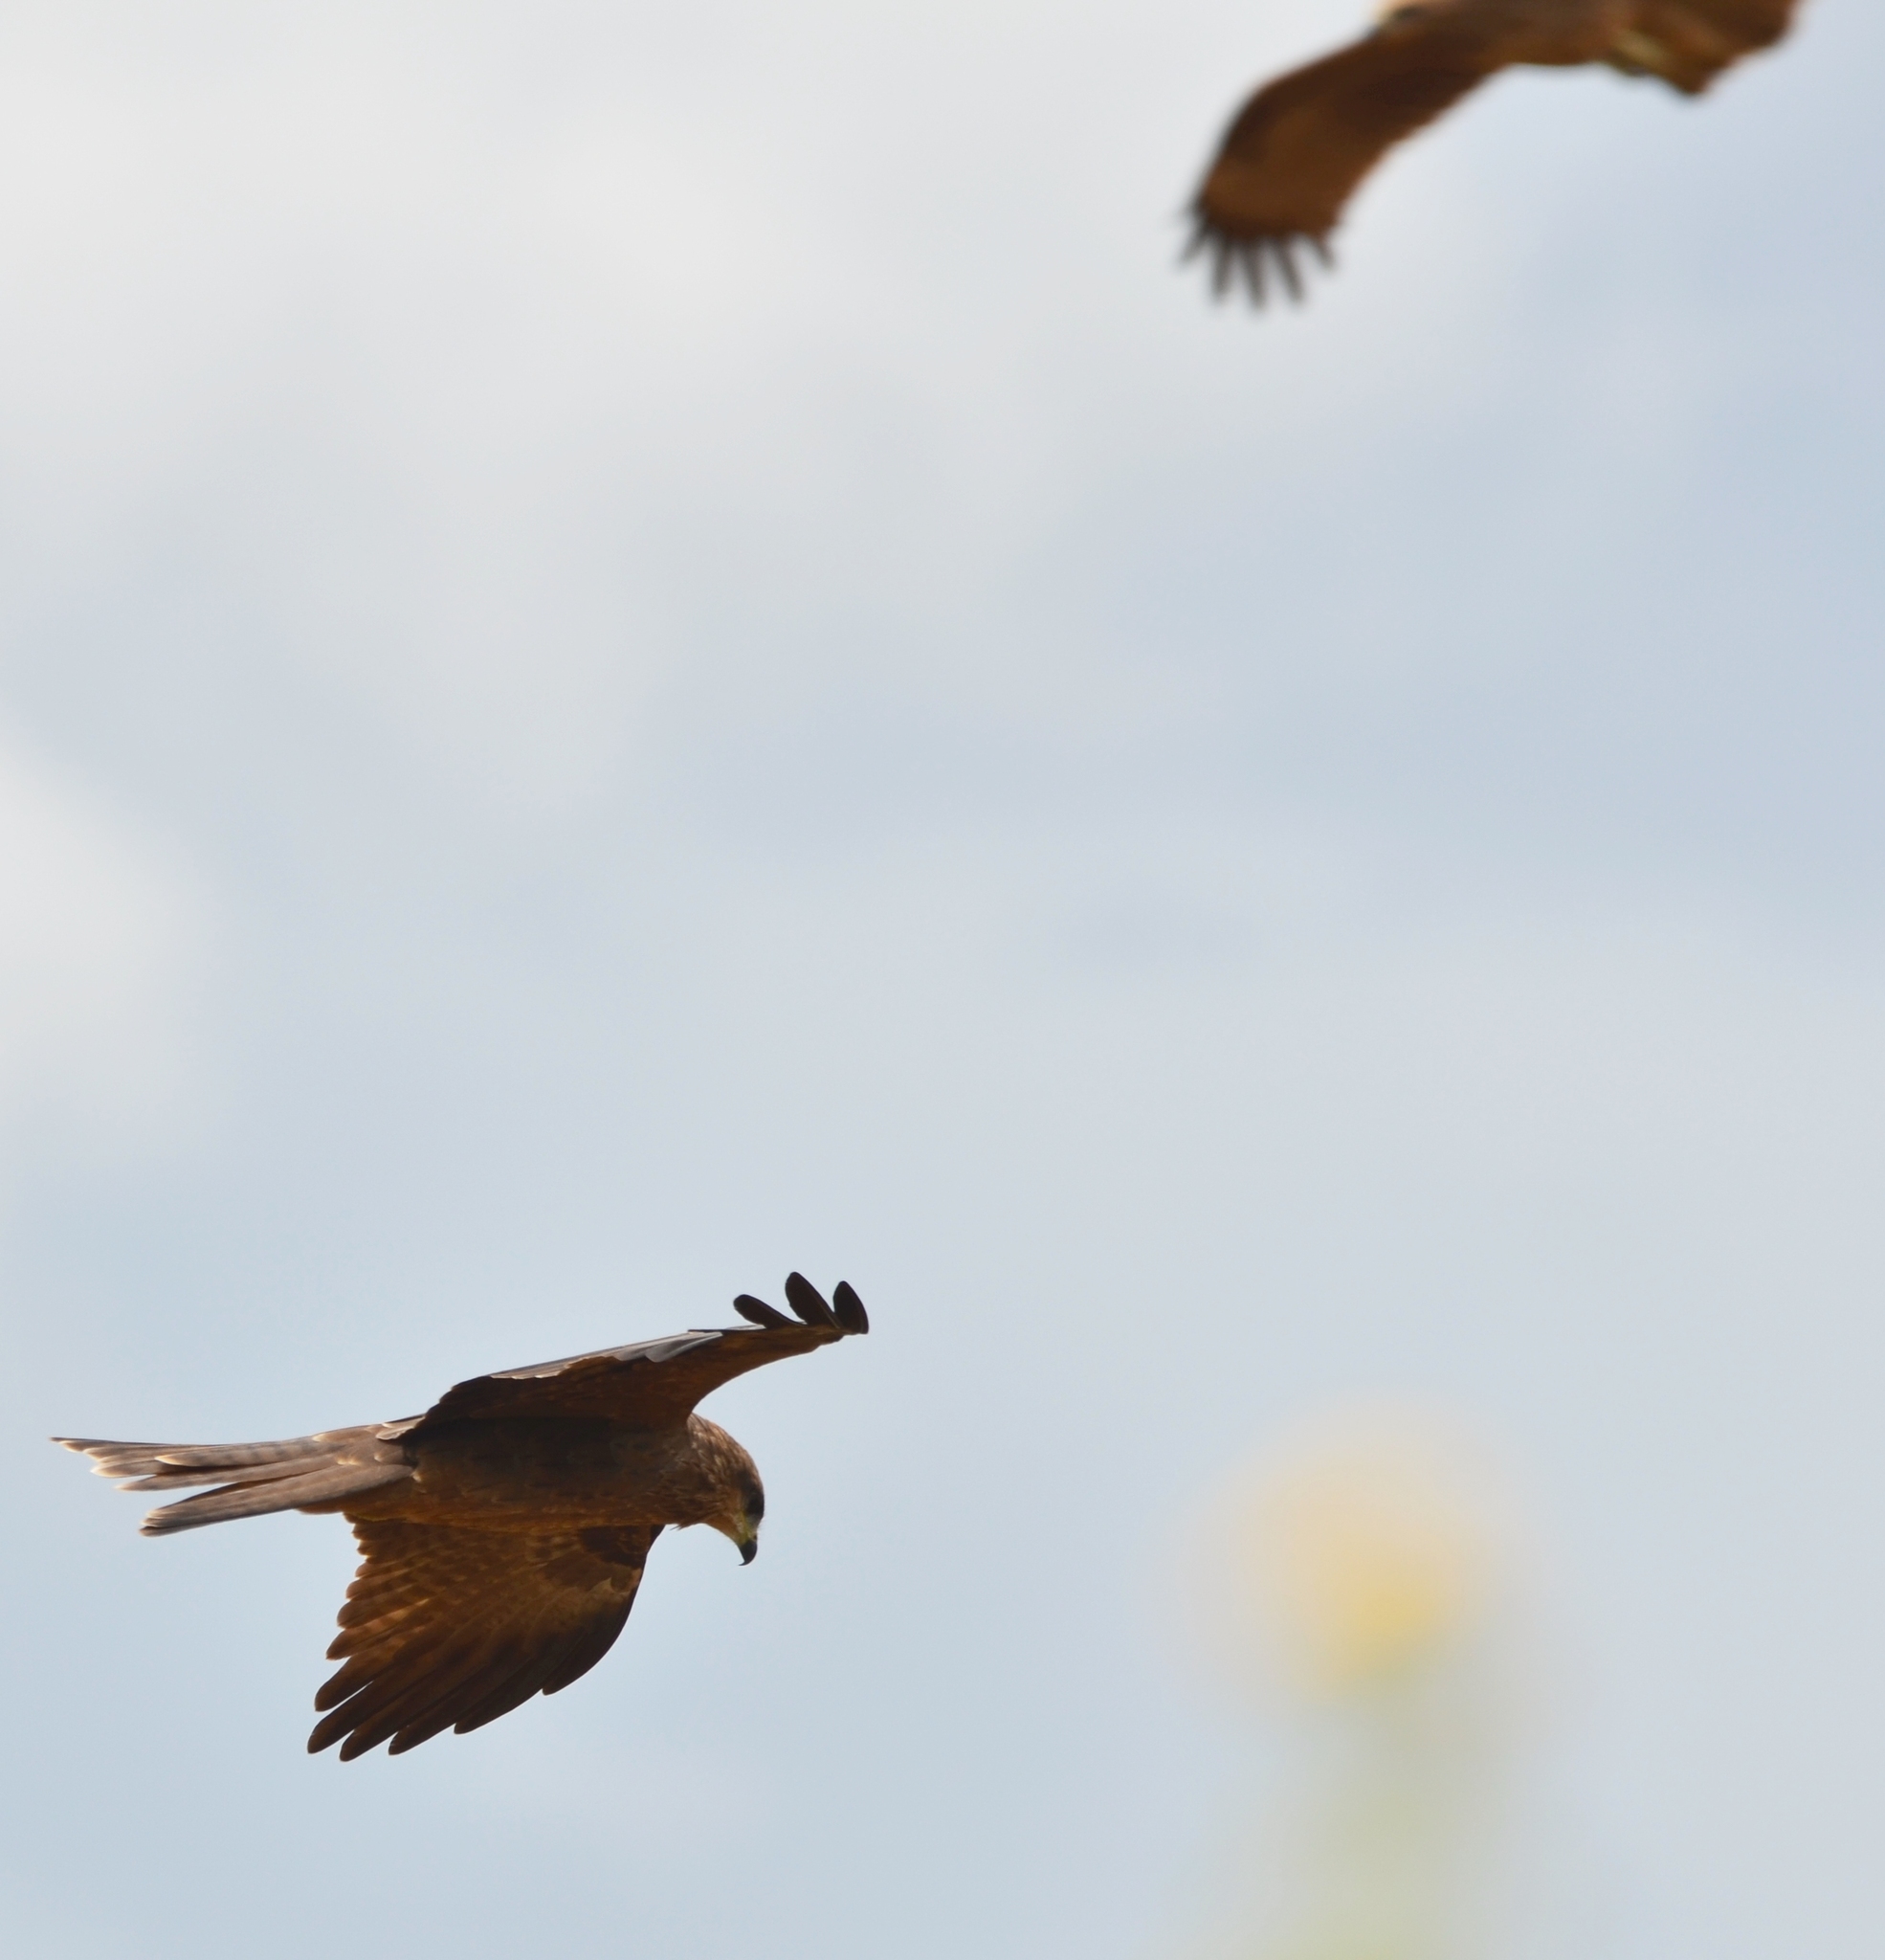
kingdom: Animalia
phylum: Chordata
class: Aves
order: Accipitriformes
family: Accipitridae
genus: Milvus
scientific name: Milvus migrans
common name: Black kite
